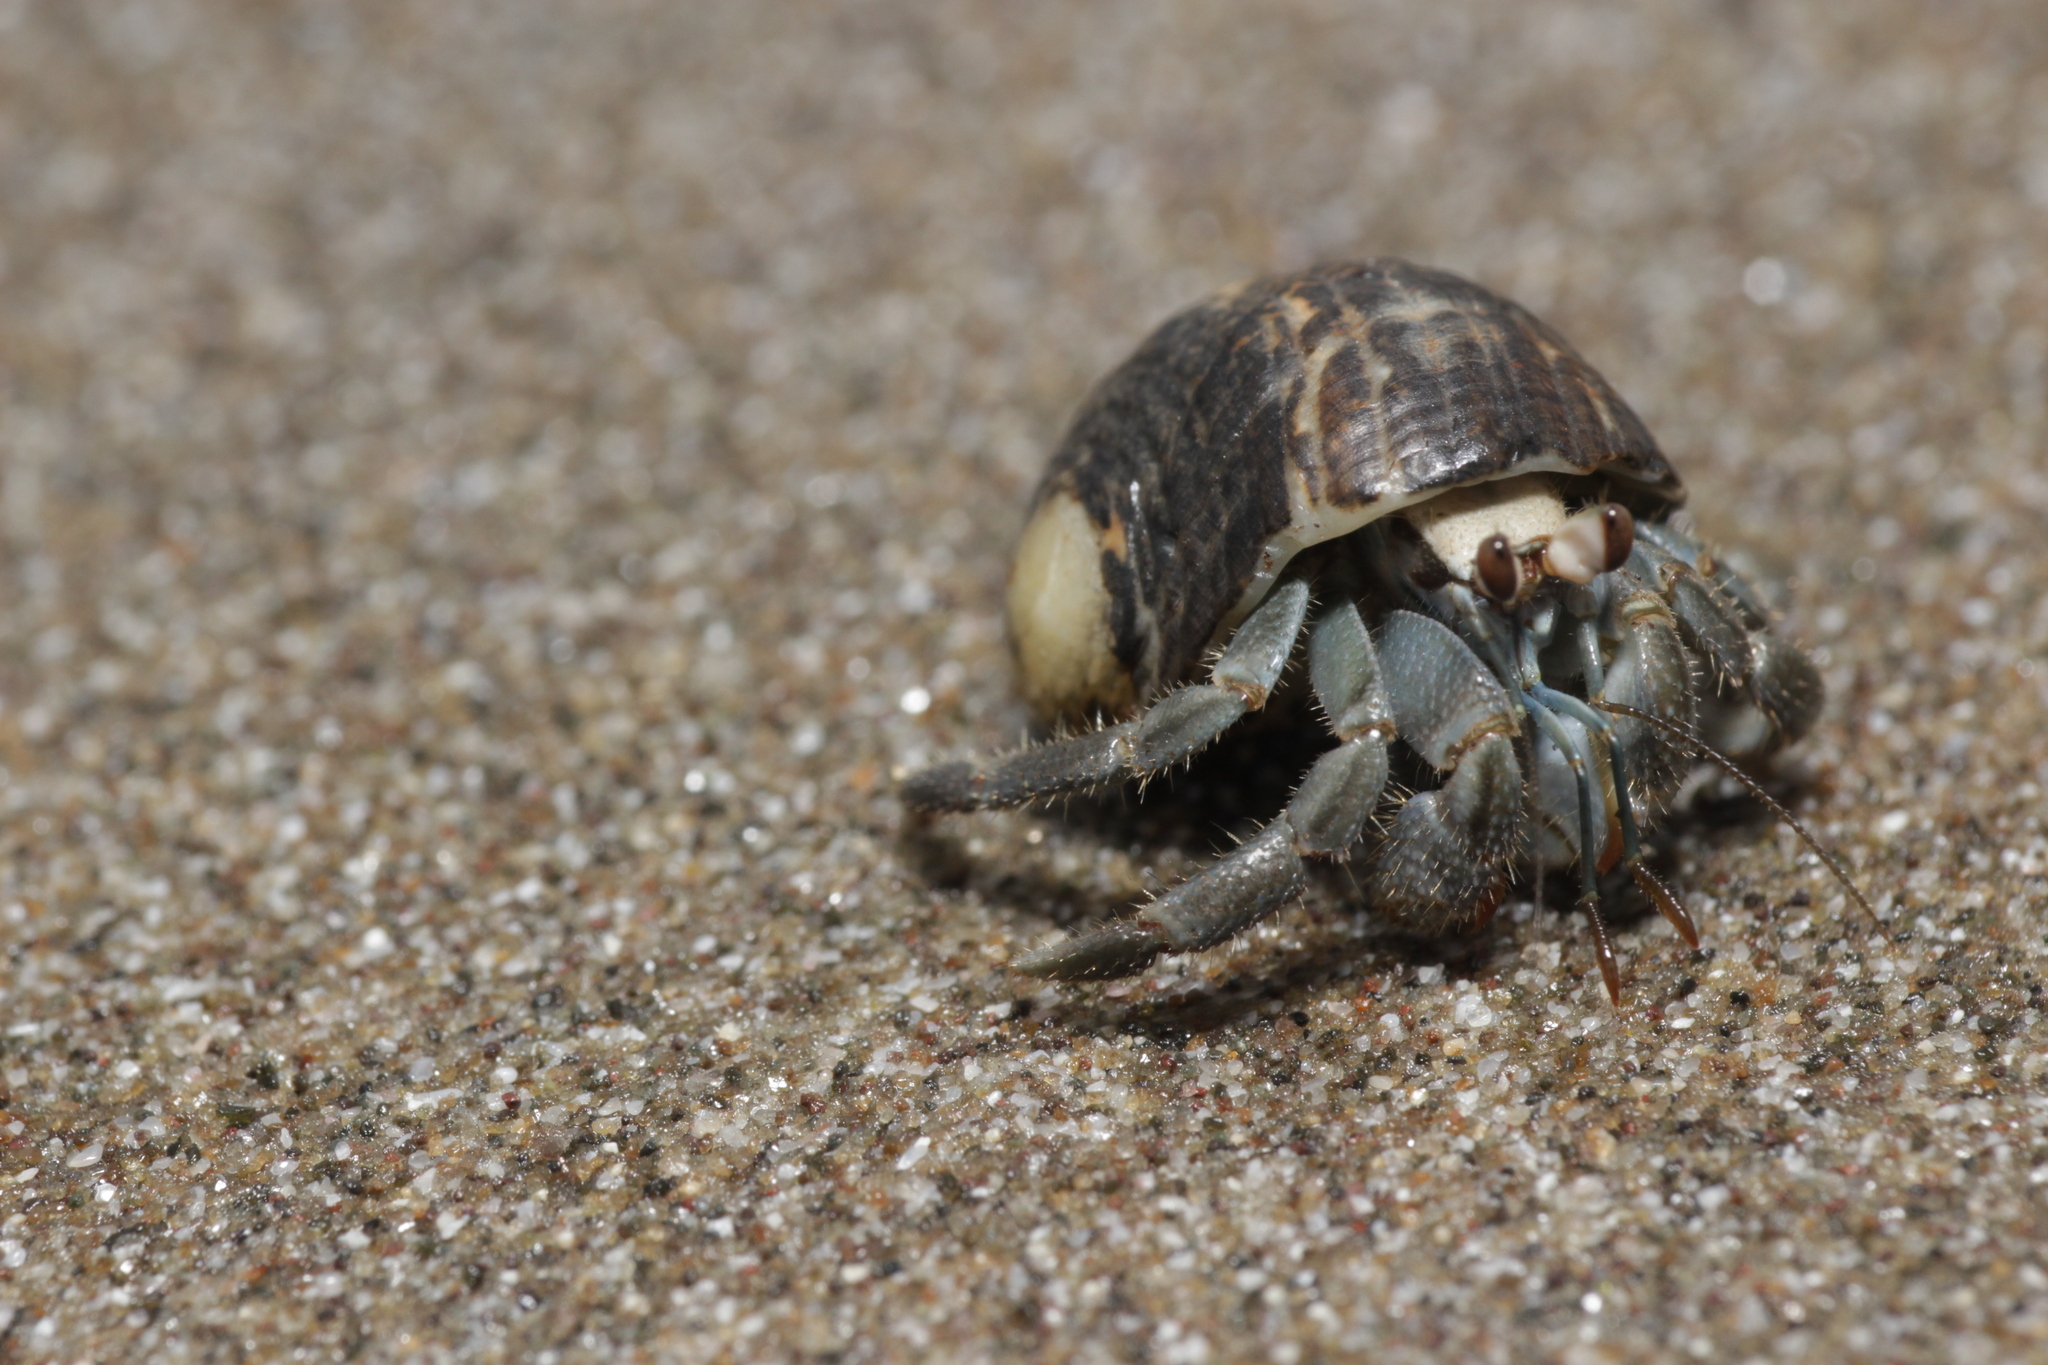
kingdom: Animalia
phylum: Arthropoda
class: Malacostraca
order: Decapoda
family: Coenobitidae
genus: Coenobita
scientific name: Coenobita compressus
